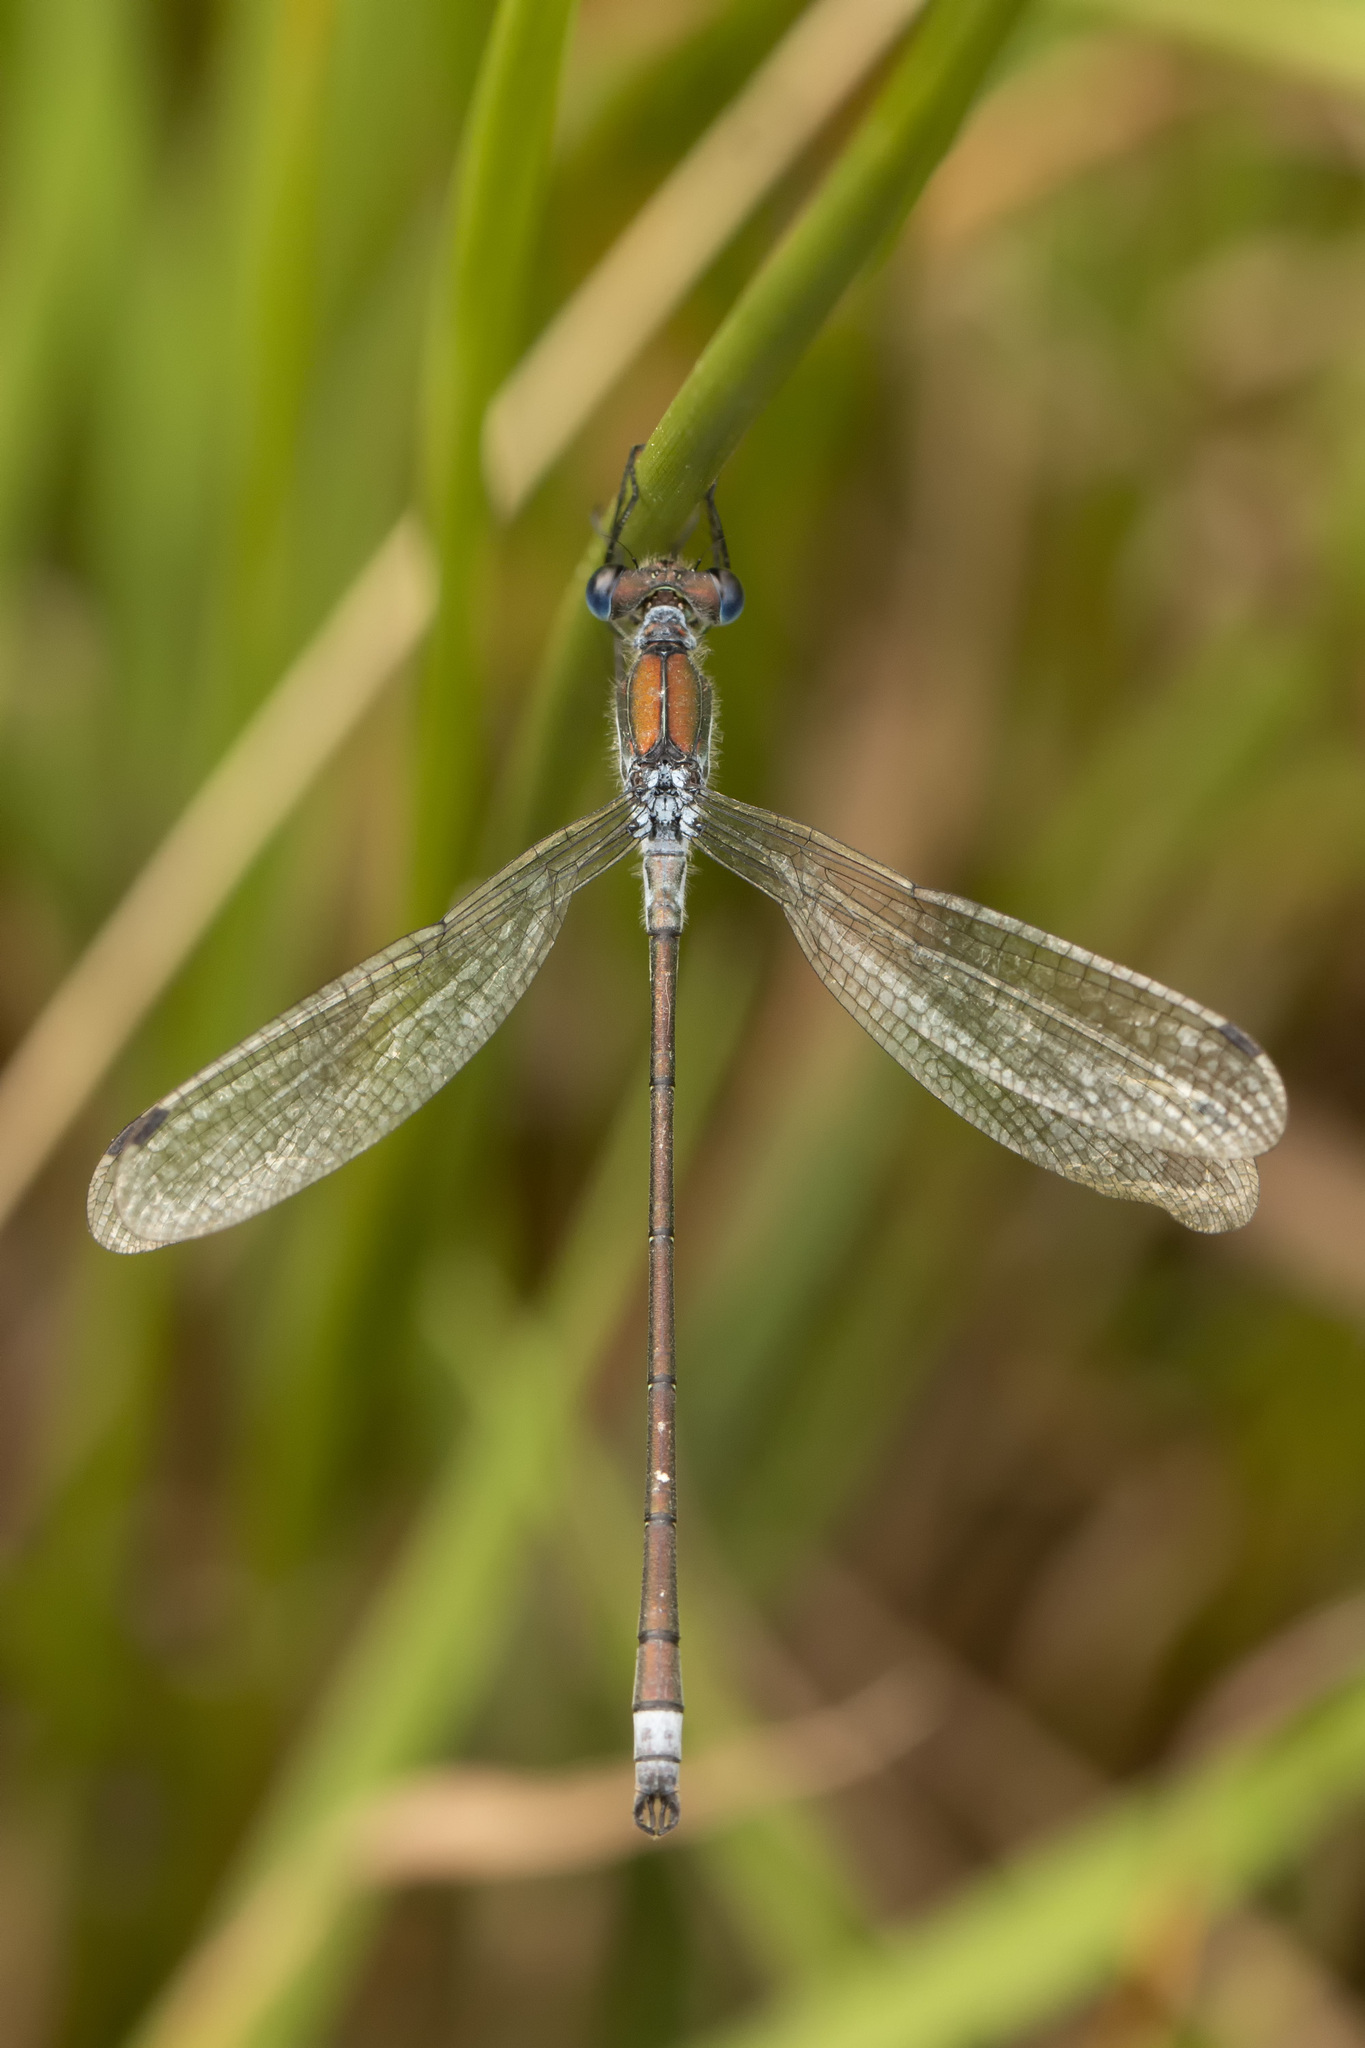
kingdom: Animalia
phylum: Arthropoda
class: Insecta
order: Odonata
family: Lestidae
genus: Lestes
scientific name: Lestes sponsa
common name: Common spreadwing
